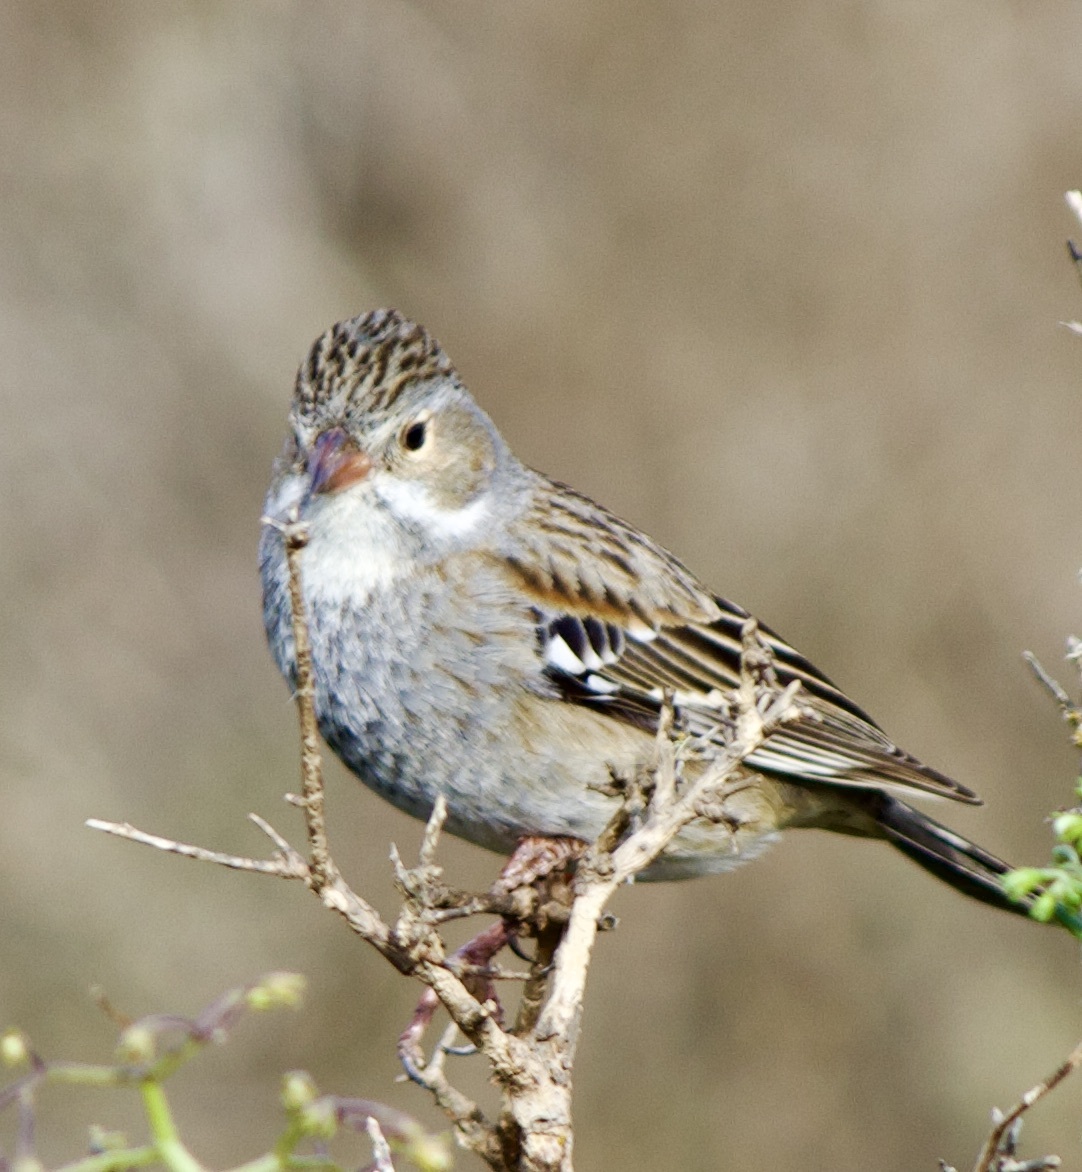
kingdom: Animalia
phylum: Chordata
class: Aves
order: Passeriformes
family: Thraupidae
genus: Rhopospina
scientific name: Rhopospina fruticeti
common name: Mourning sierra finch
